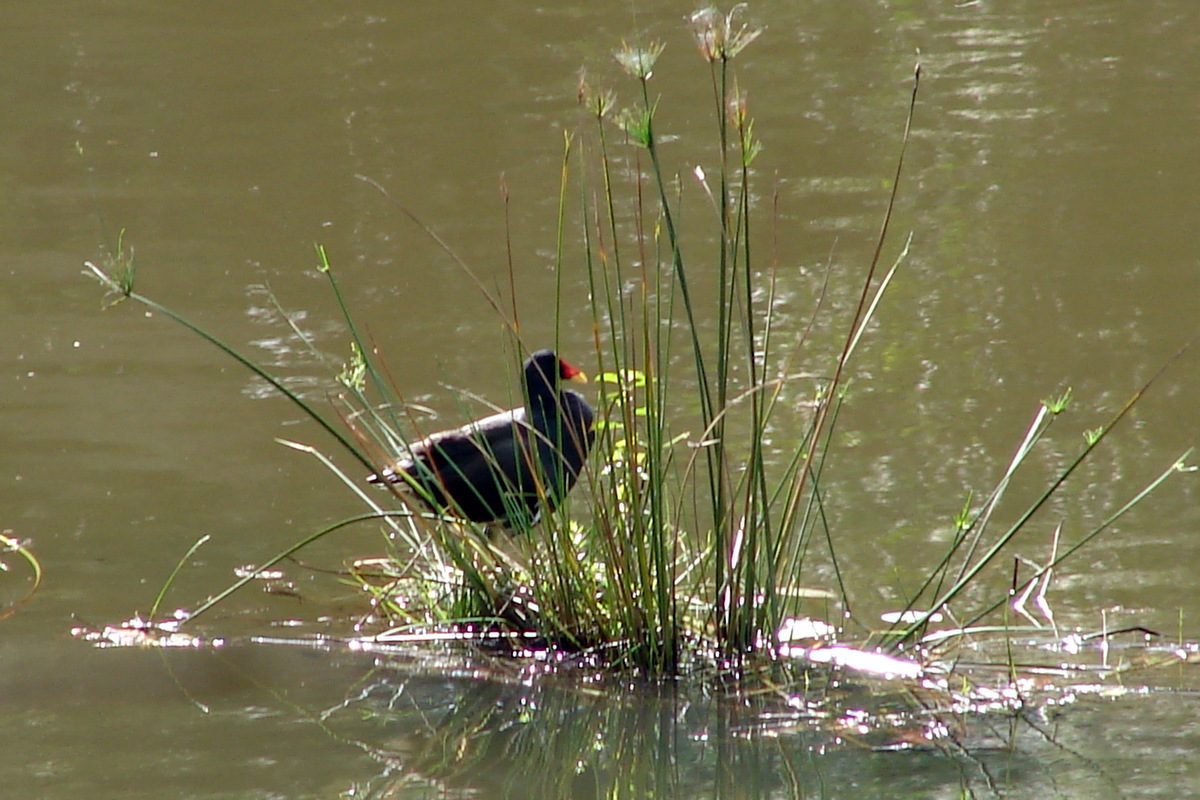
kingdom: Animalia
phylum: Chordata
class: Aves
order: Gruiformes
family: Rallidae
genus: Gallinula
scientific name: Gallinula chloropus
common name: Common moorhen
